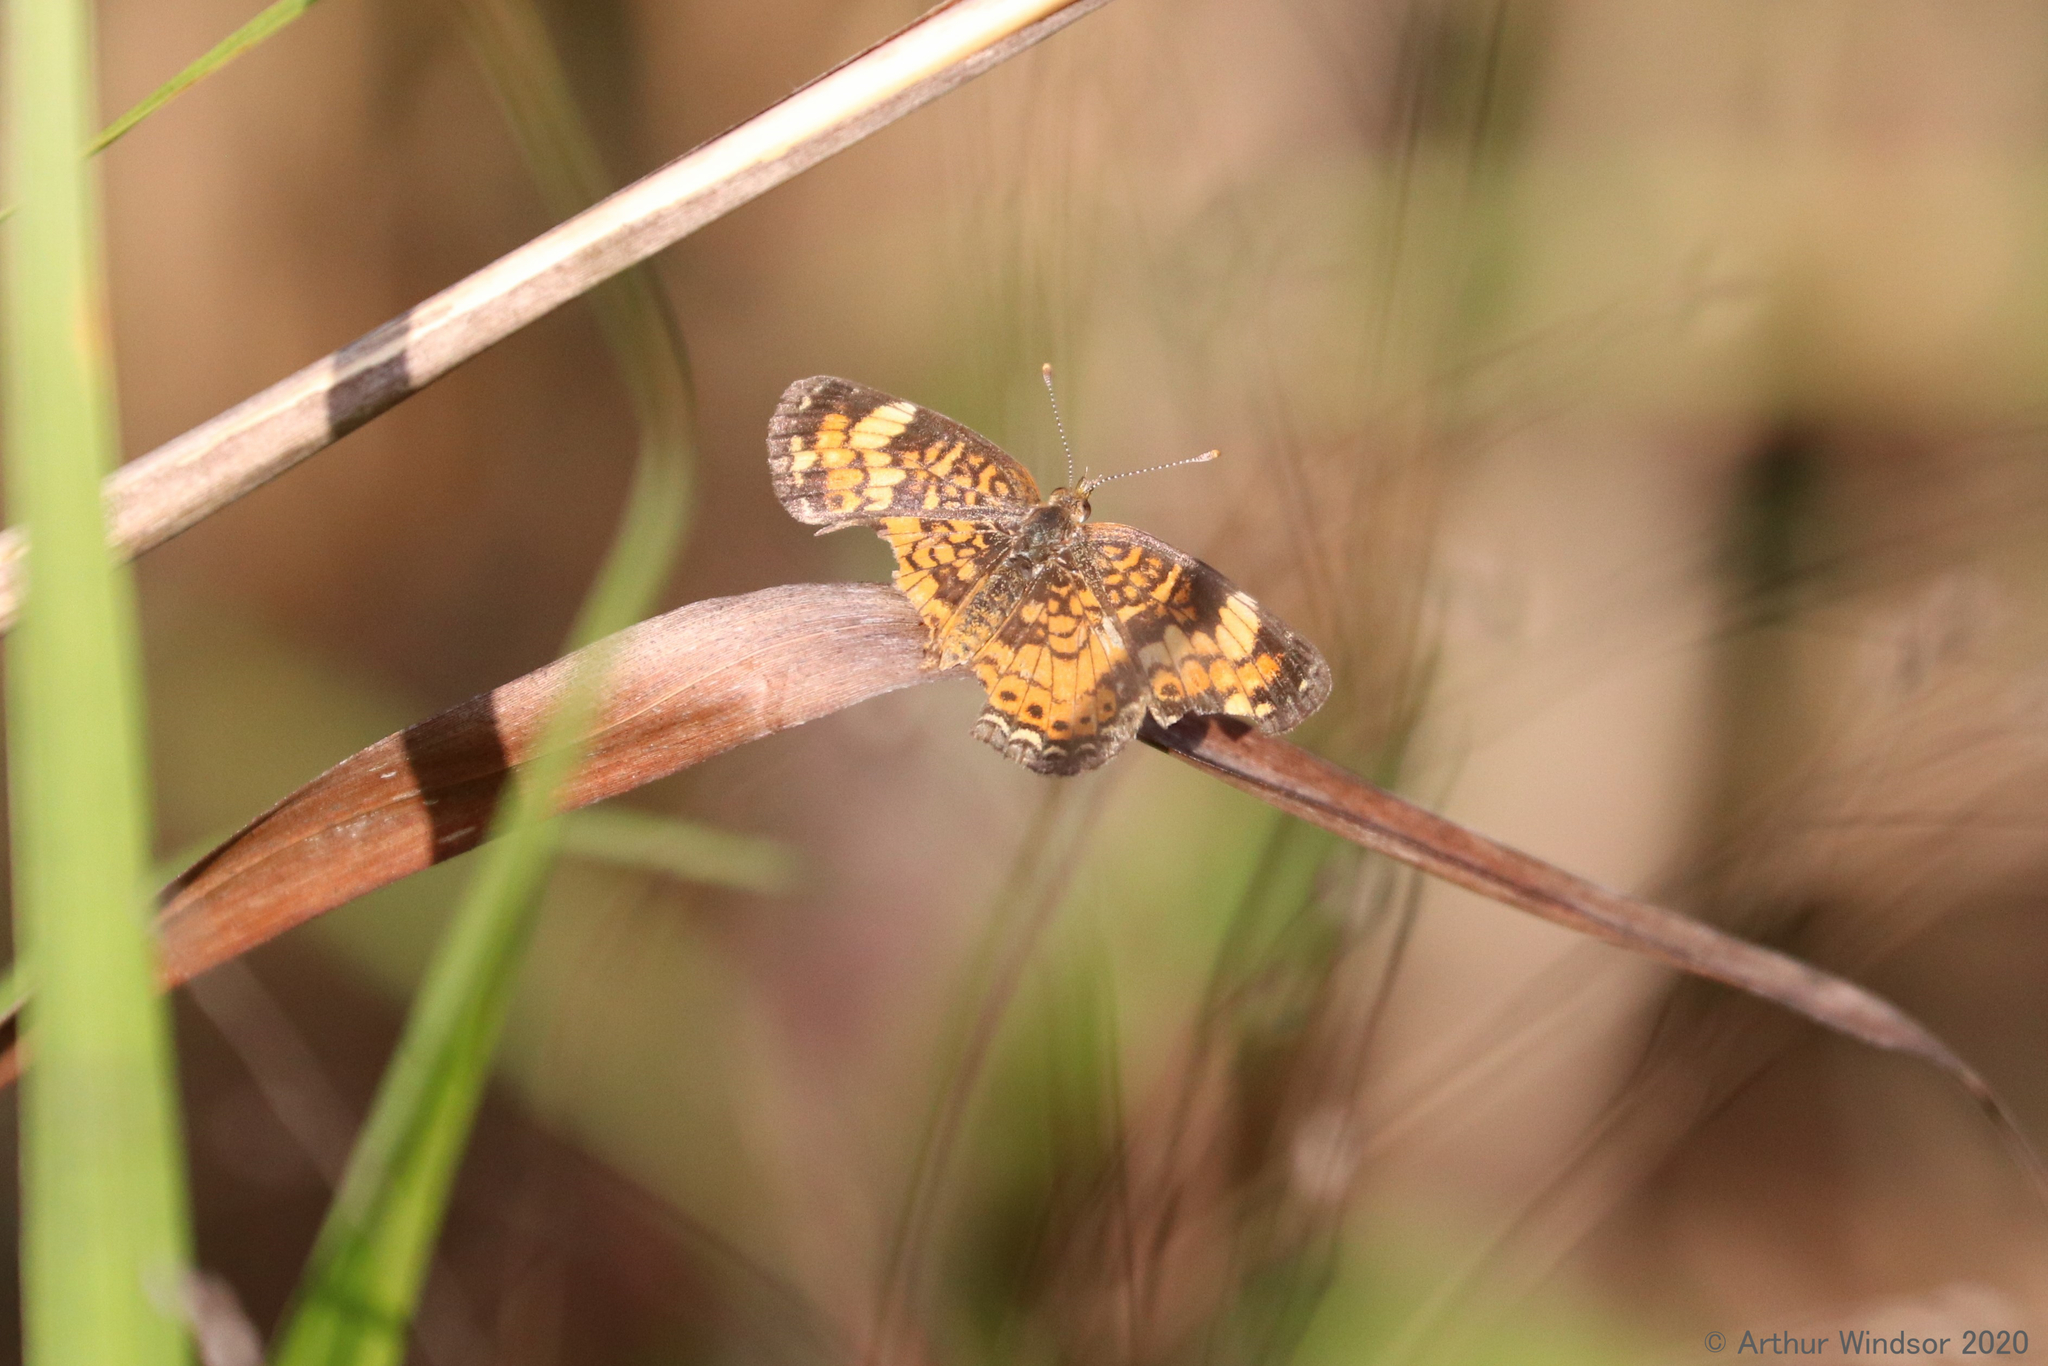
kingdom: Animalia
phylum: Arthropoda
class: Insecta
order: Lepidoptera
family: Nymphalidae
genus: Phyciodes
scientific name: Phyciodes phaon
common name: Phaon crescent
